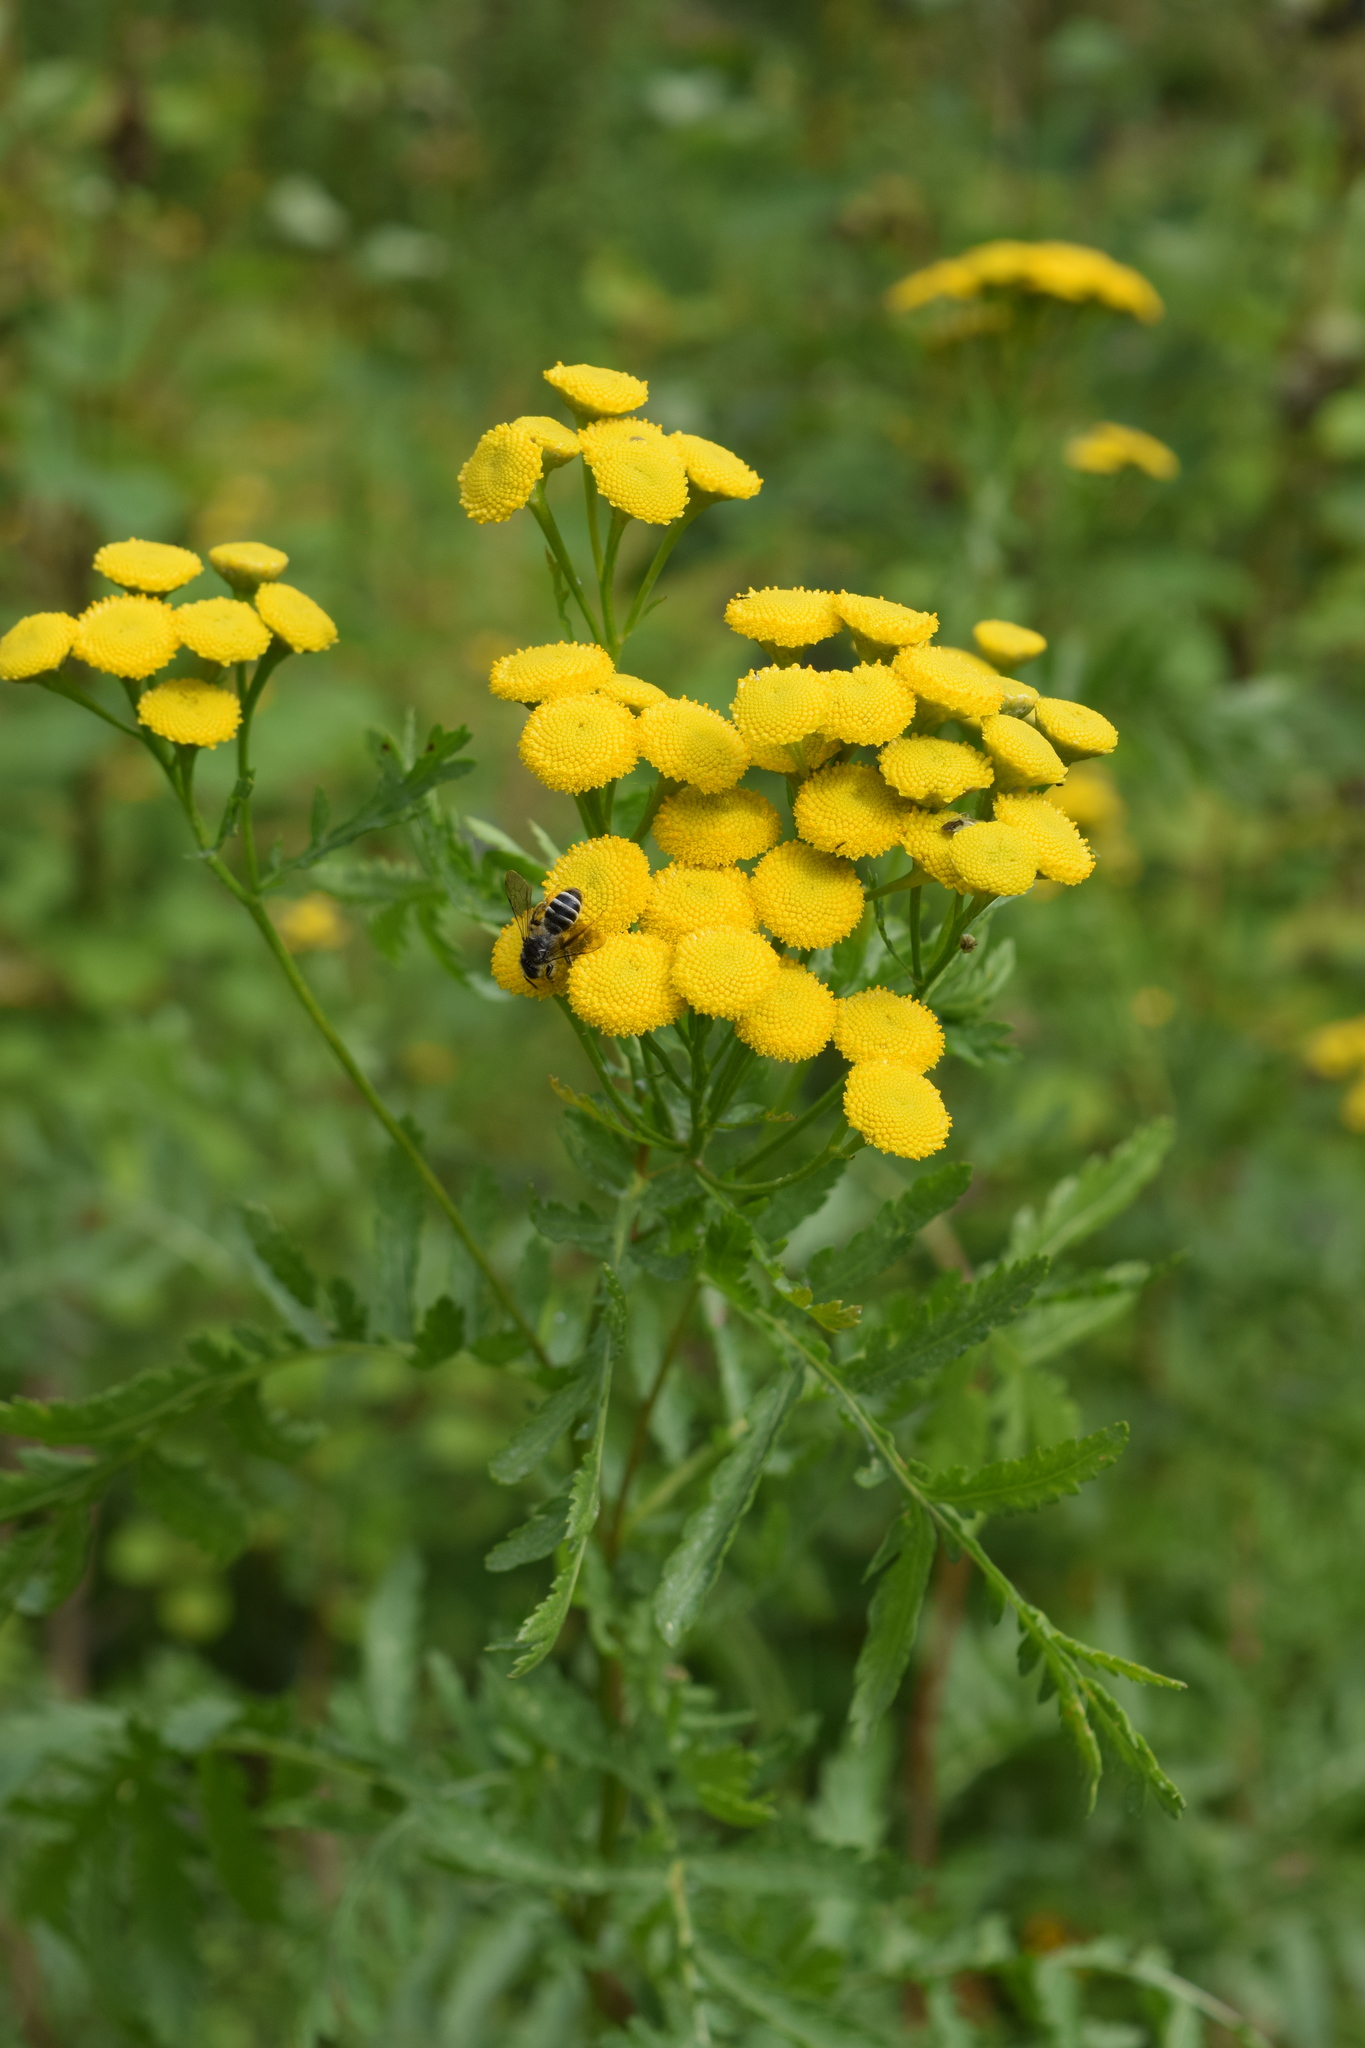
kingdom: Plantae
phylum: Tracheophyta
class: Magnoliopsida
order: Asterales
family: Asteraceae
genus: Tanacetum
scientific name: Tanacetum vulgare
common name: Common tansy
